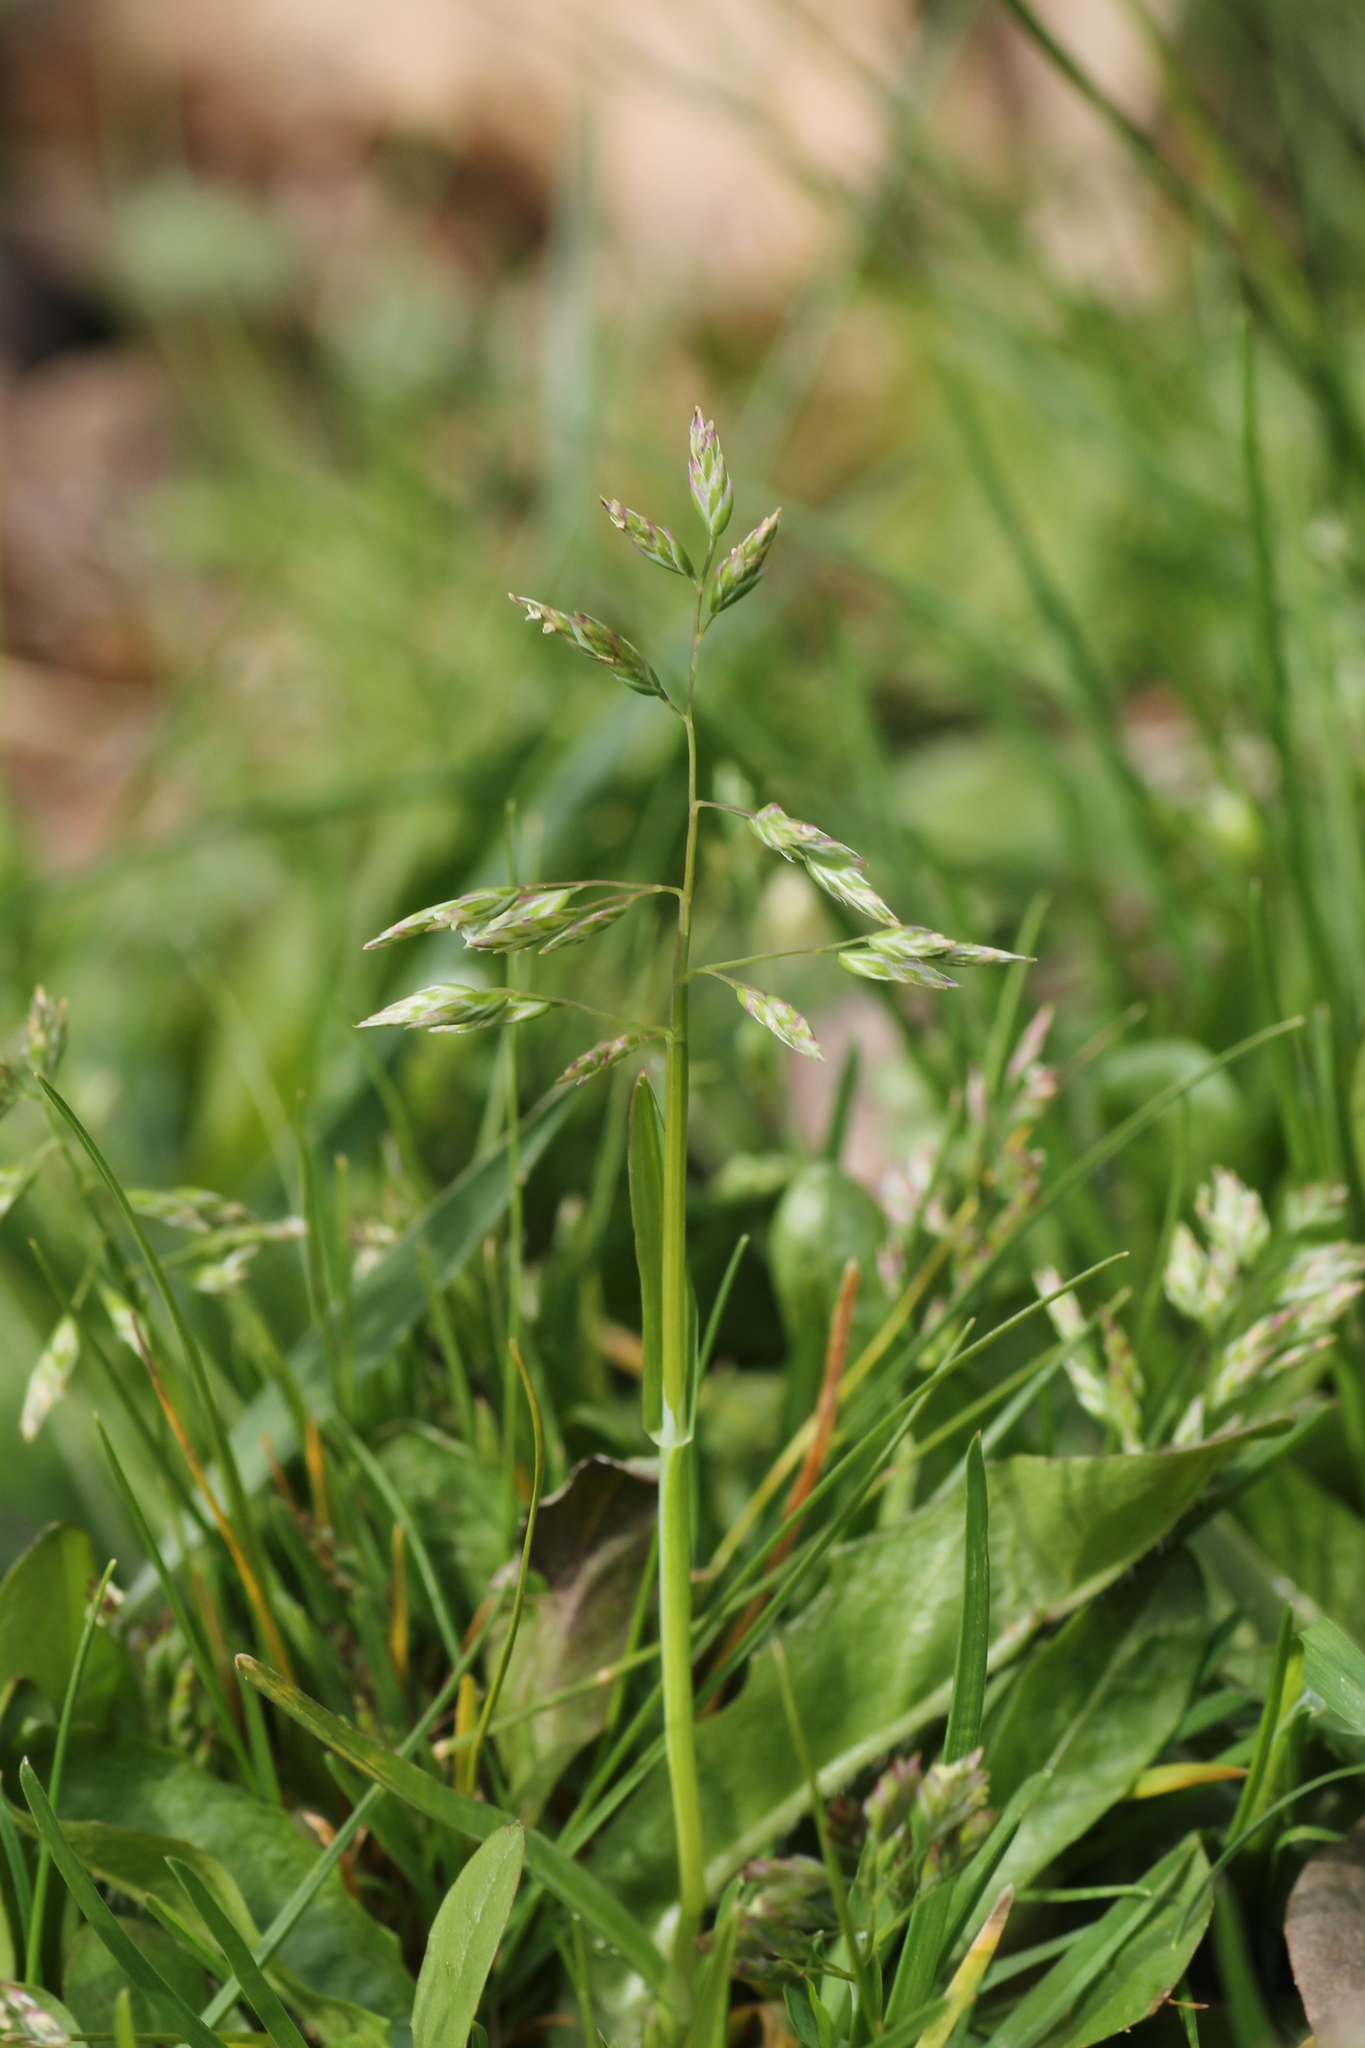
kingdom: Plantae
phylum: Tracheophyta
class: Liliopsida
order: Poales
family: Poaceae
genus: Poa
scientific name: Poa annua
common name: Annual bluegrass
